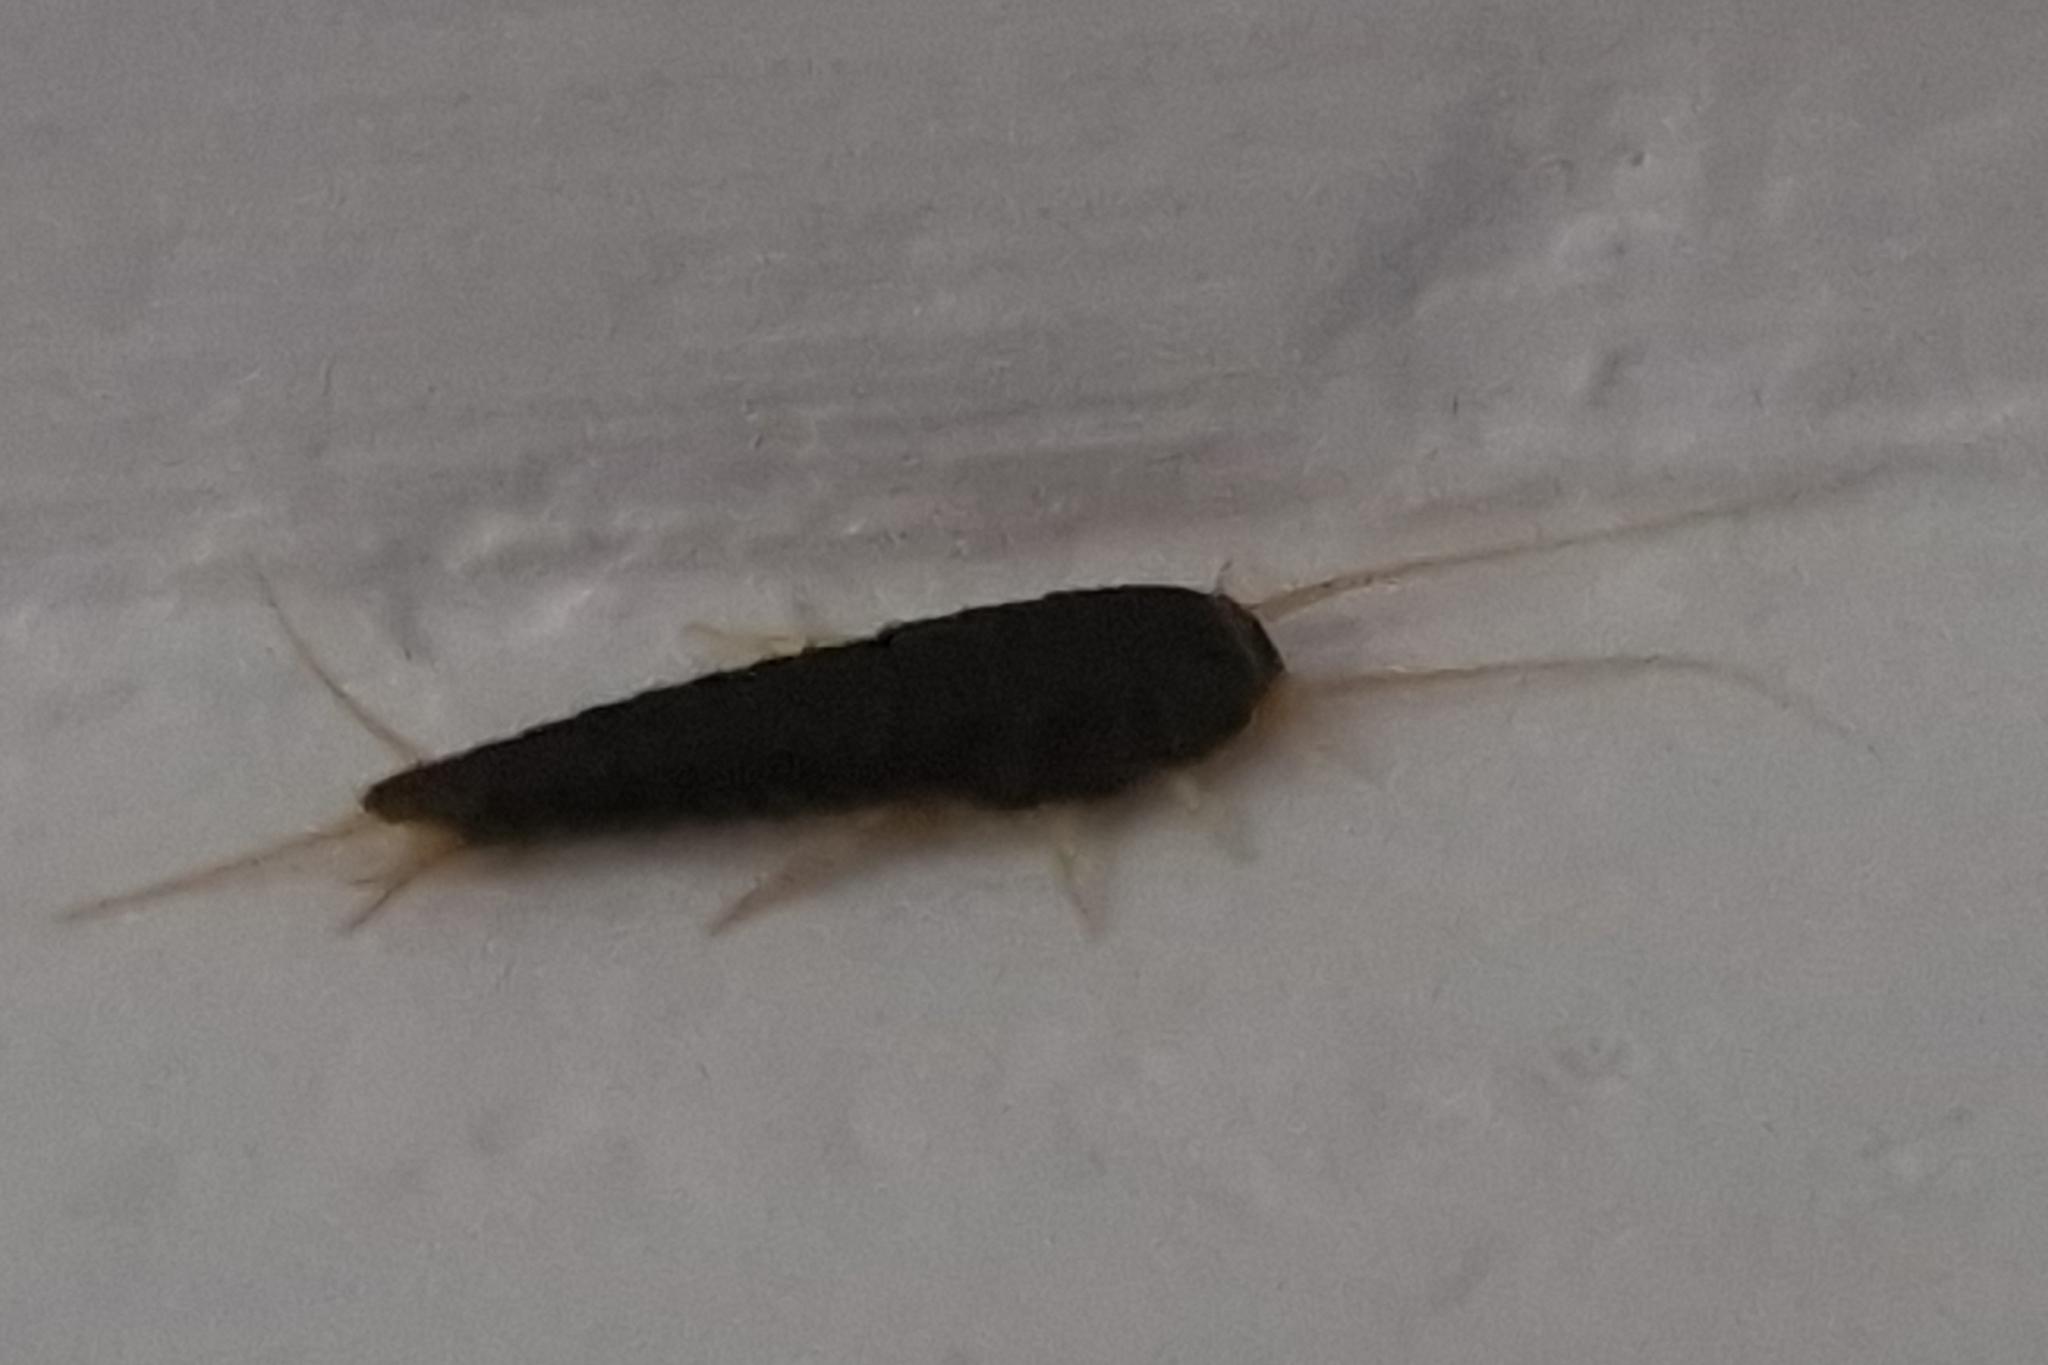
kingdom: Animalia
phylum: Arthropoda
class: Insecta
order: Zygentoma
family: Lepismatidae
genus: Lepisma
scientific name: Lepisma saccharinum
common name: Silverfish
